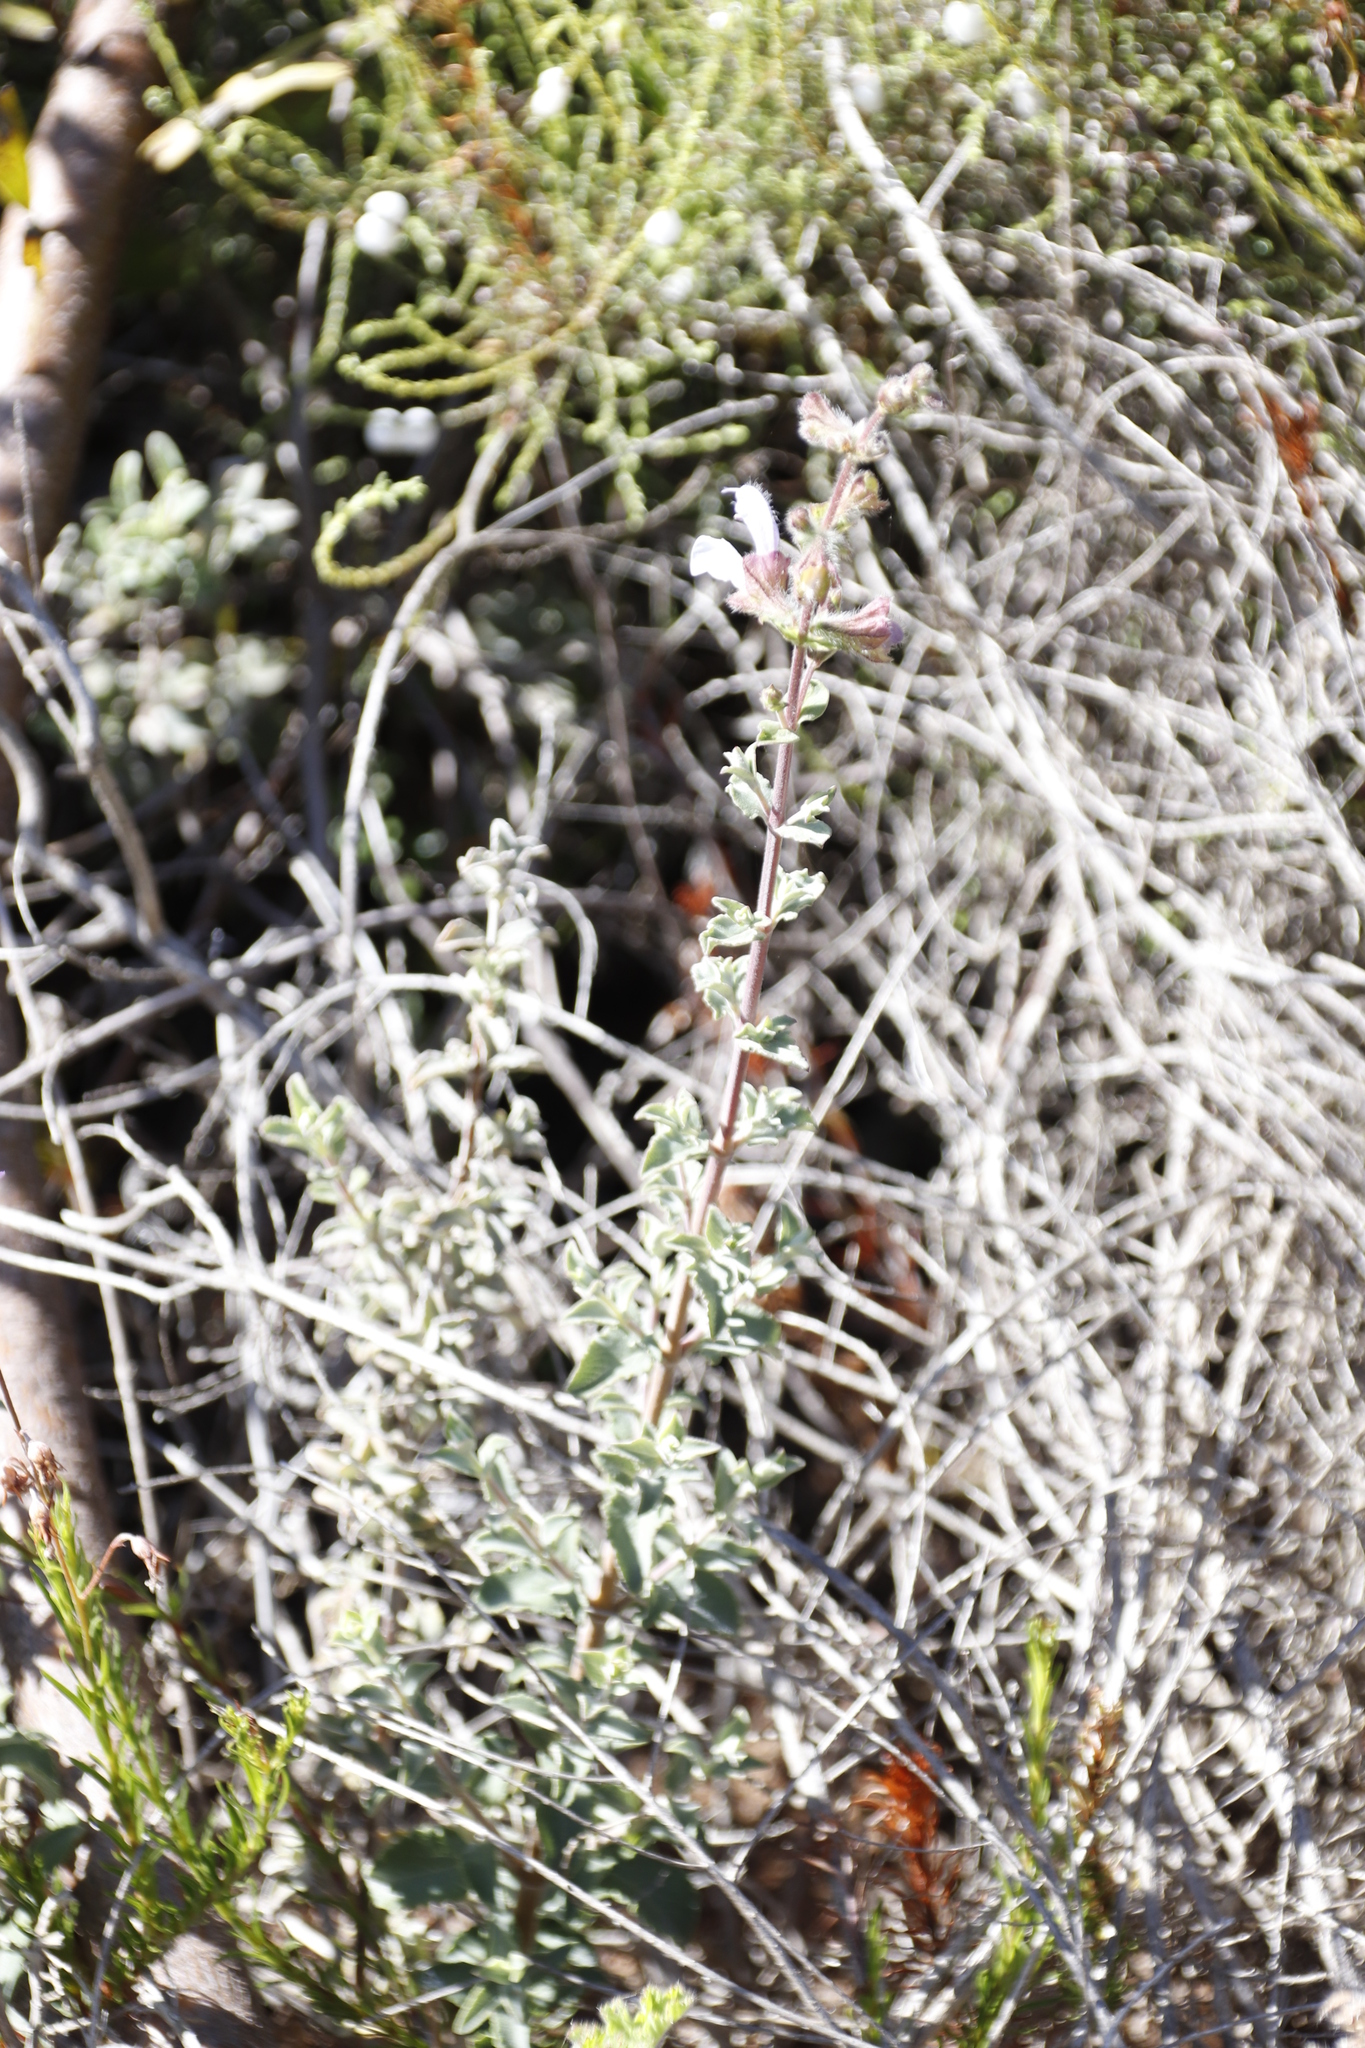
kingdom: Plantae
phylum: Tracheophyta
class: Magnoliopsida
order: Lamiales
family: Lamiaceae
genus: Salvia
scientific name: Salvia africana
